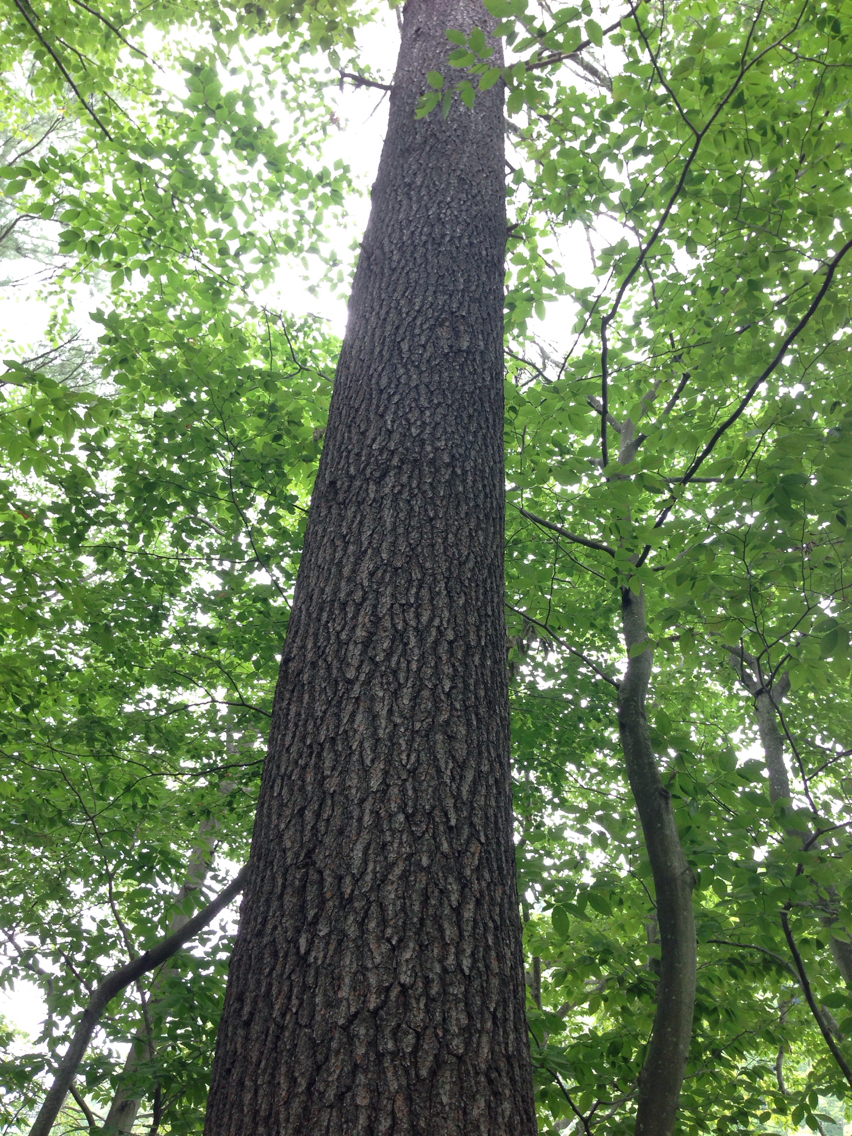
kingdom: Plantae
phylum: Tracheophyta
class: Pinopsida
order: Pinales
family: Pinaceae
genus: Pinus
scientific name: Pinus strobus
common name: Weymouth pine
